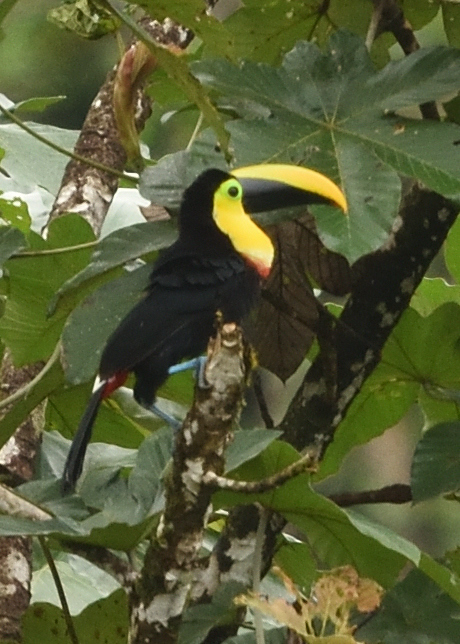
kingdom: Animalia
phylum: Chordata
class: Aves
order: Piciformes
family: Ramphastidae
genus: Ramphastos
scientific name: Ramphastos brevis
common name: Choco toucan
